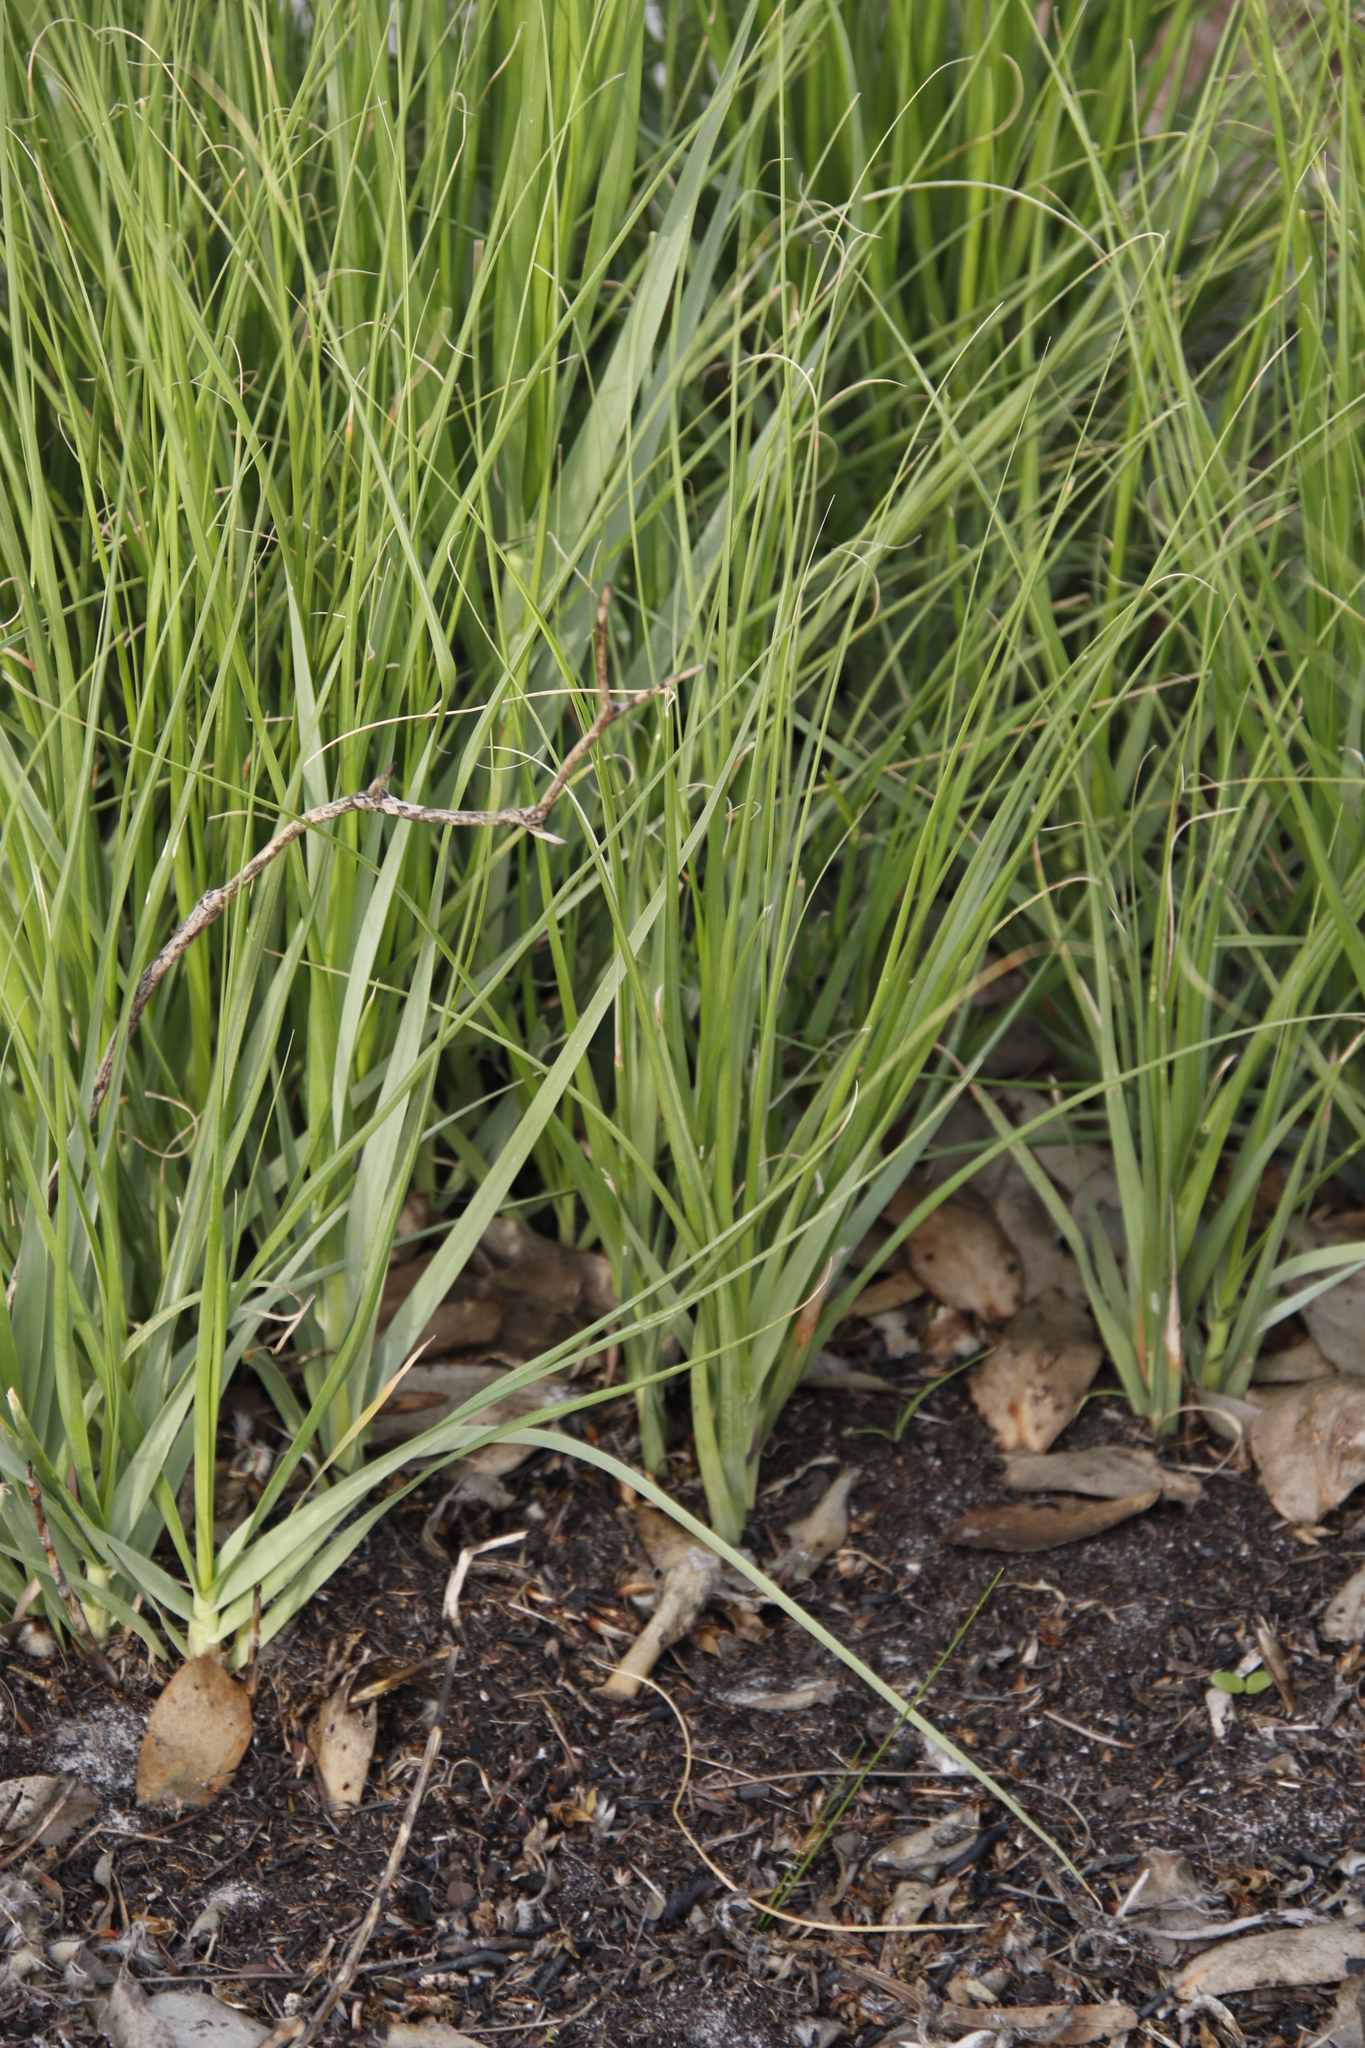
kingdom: Plantae
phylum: Tracheophyta
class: Liliopsida
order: Poales
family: Poaceae
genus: Pseudopentameris
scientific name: Pseudopentameris macrantha
